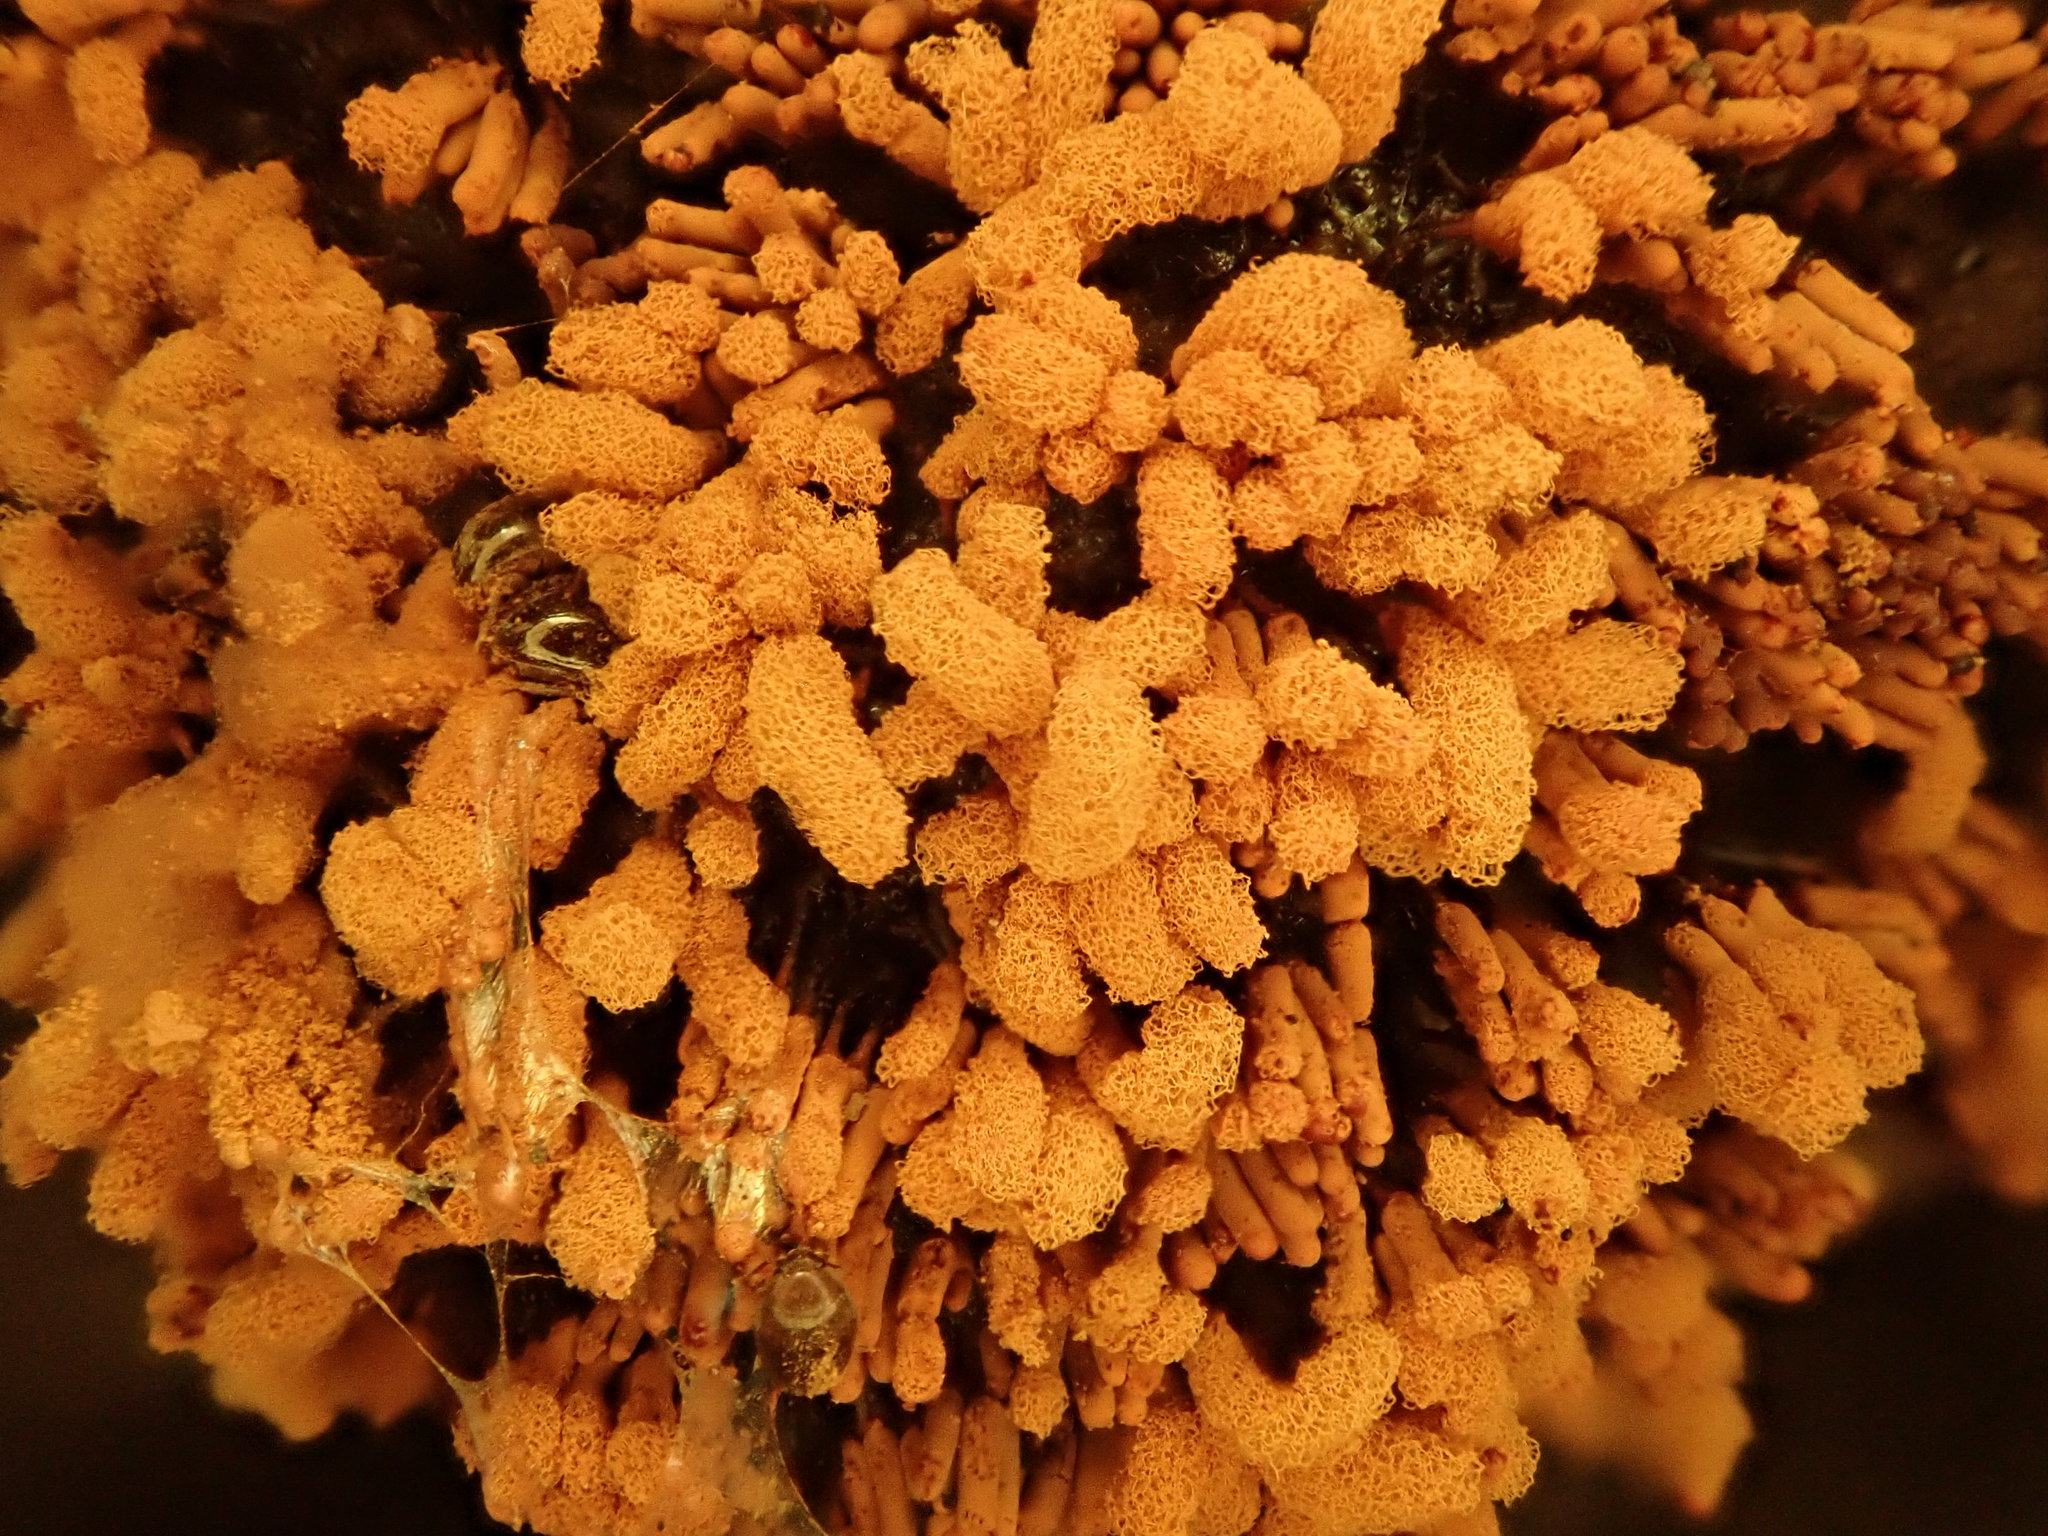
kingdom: Protozoa
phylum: Mycetozoa
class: Myxomycetes
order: Trichiales
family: Arcyriaceae
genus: Arcyria
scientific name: Arcyria obvelata
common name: Yellow carnival candy slime
